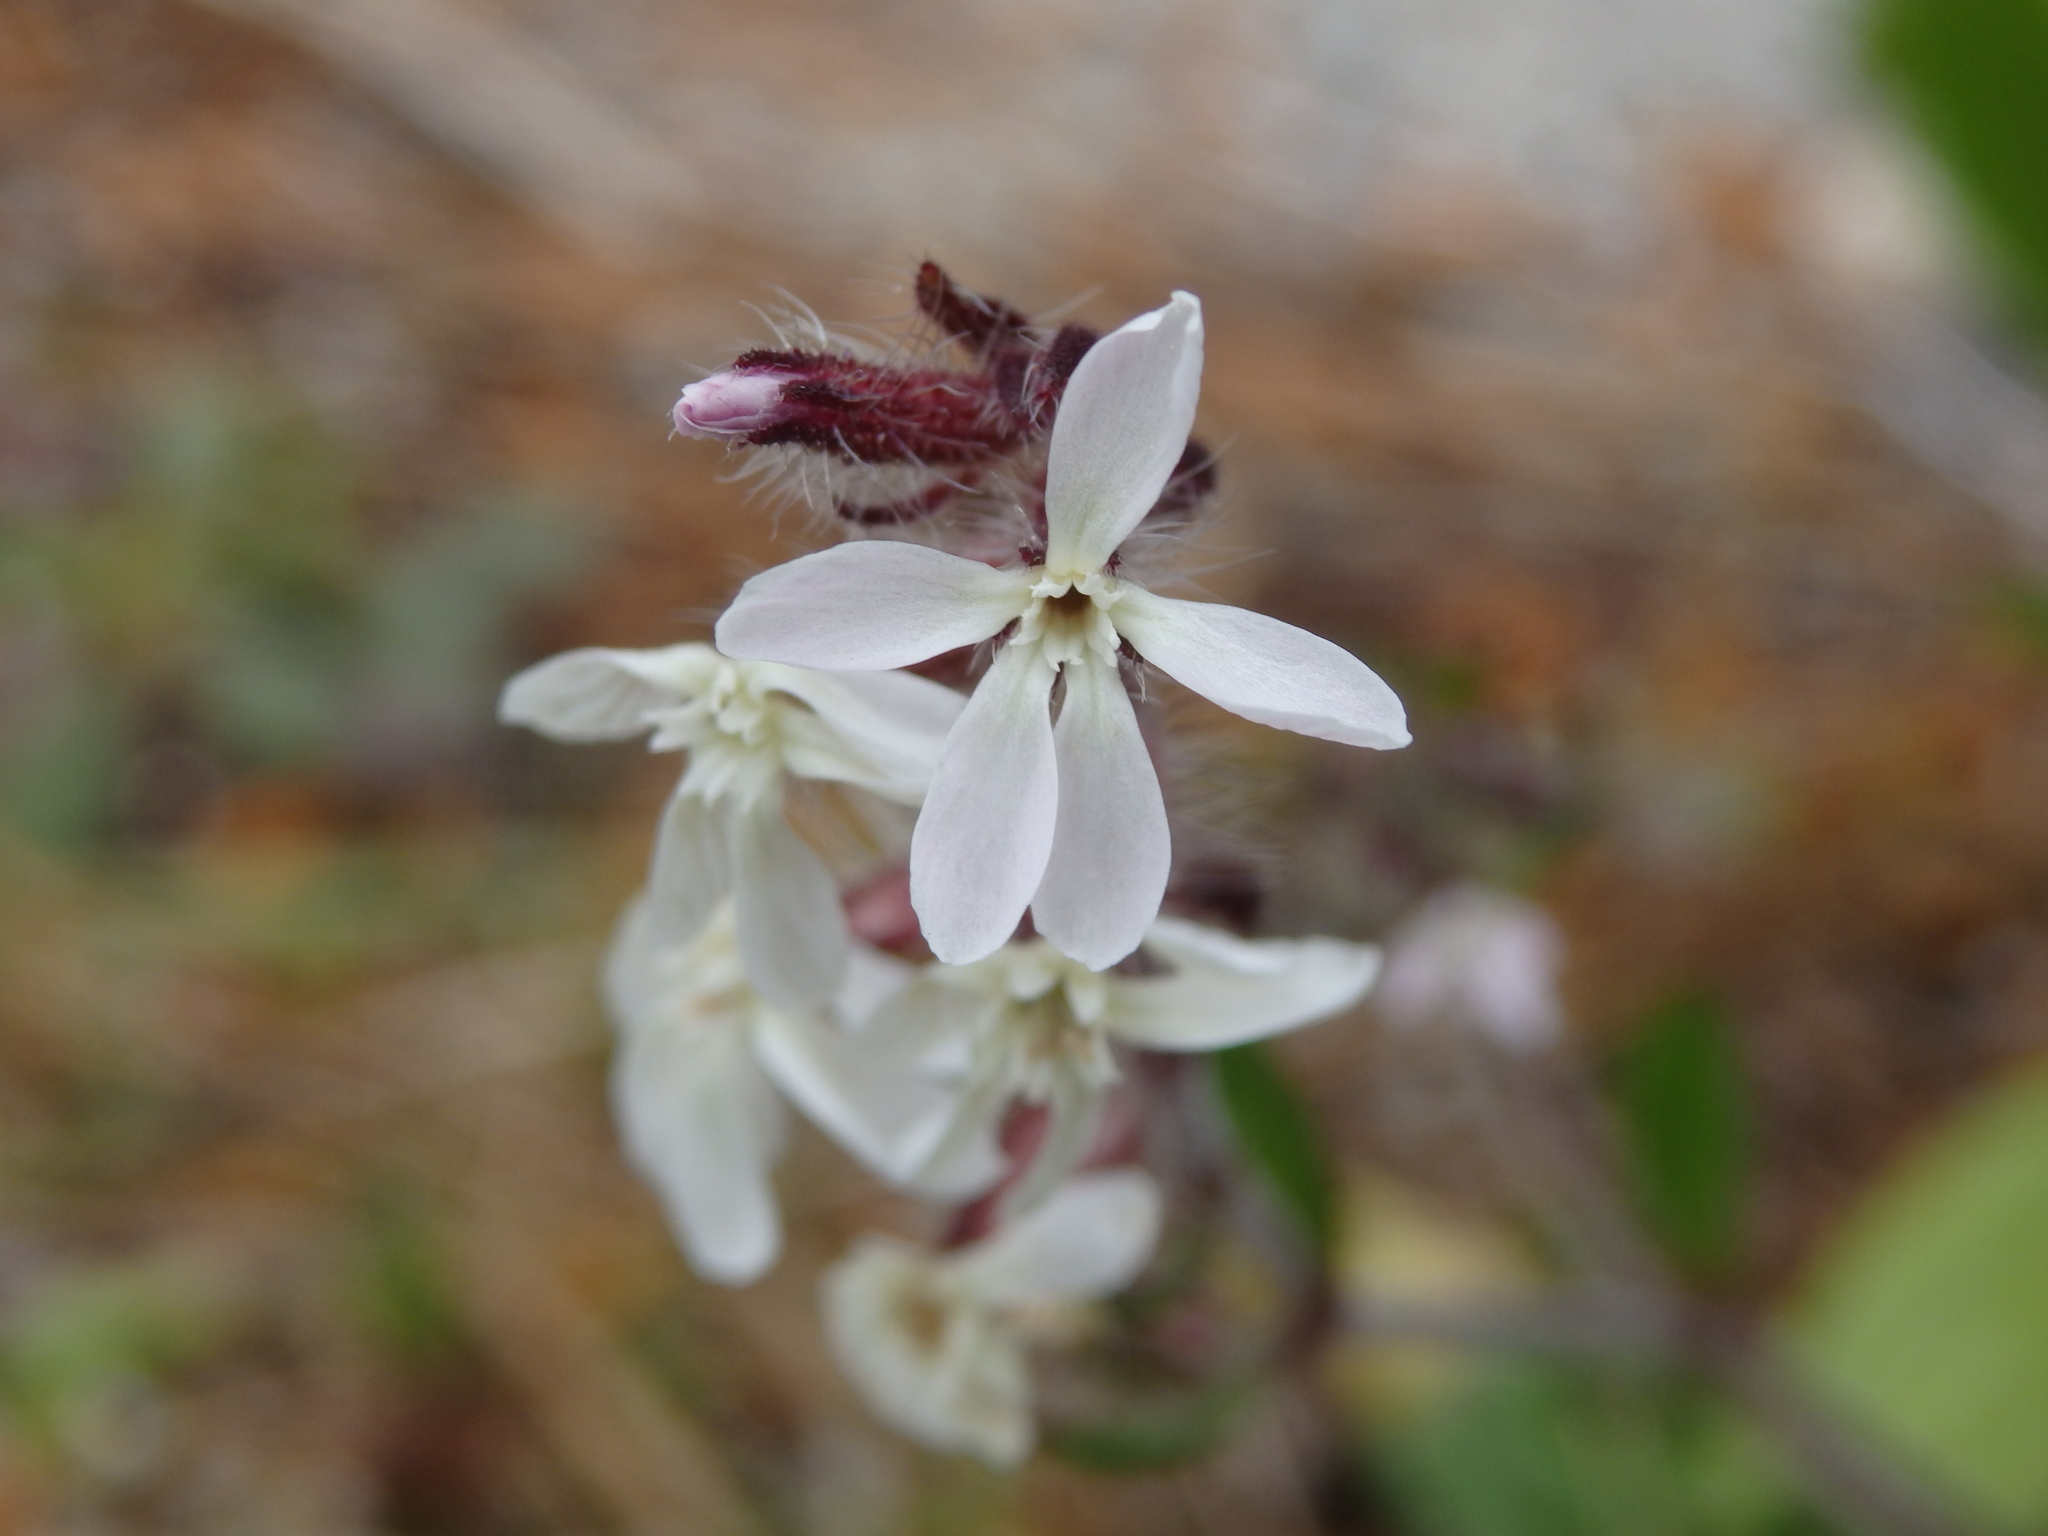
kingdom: Plantae
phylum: Tracheophyta
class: Magnoliopsida
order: Caryophyllales
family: Caryophyllaceae
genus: Silene
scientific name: Silene gallica
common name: Small-flowered catchfly
